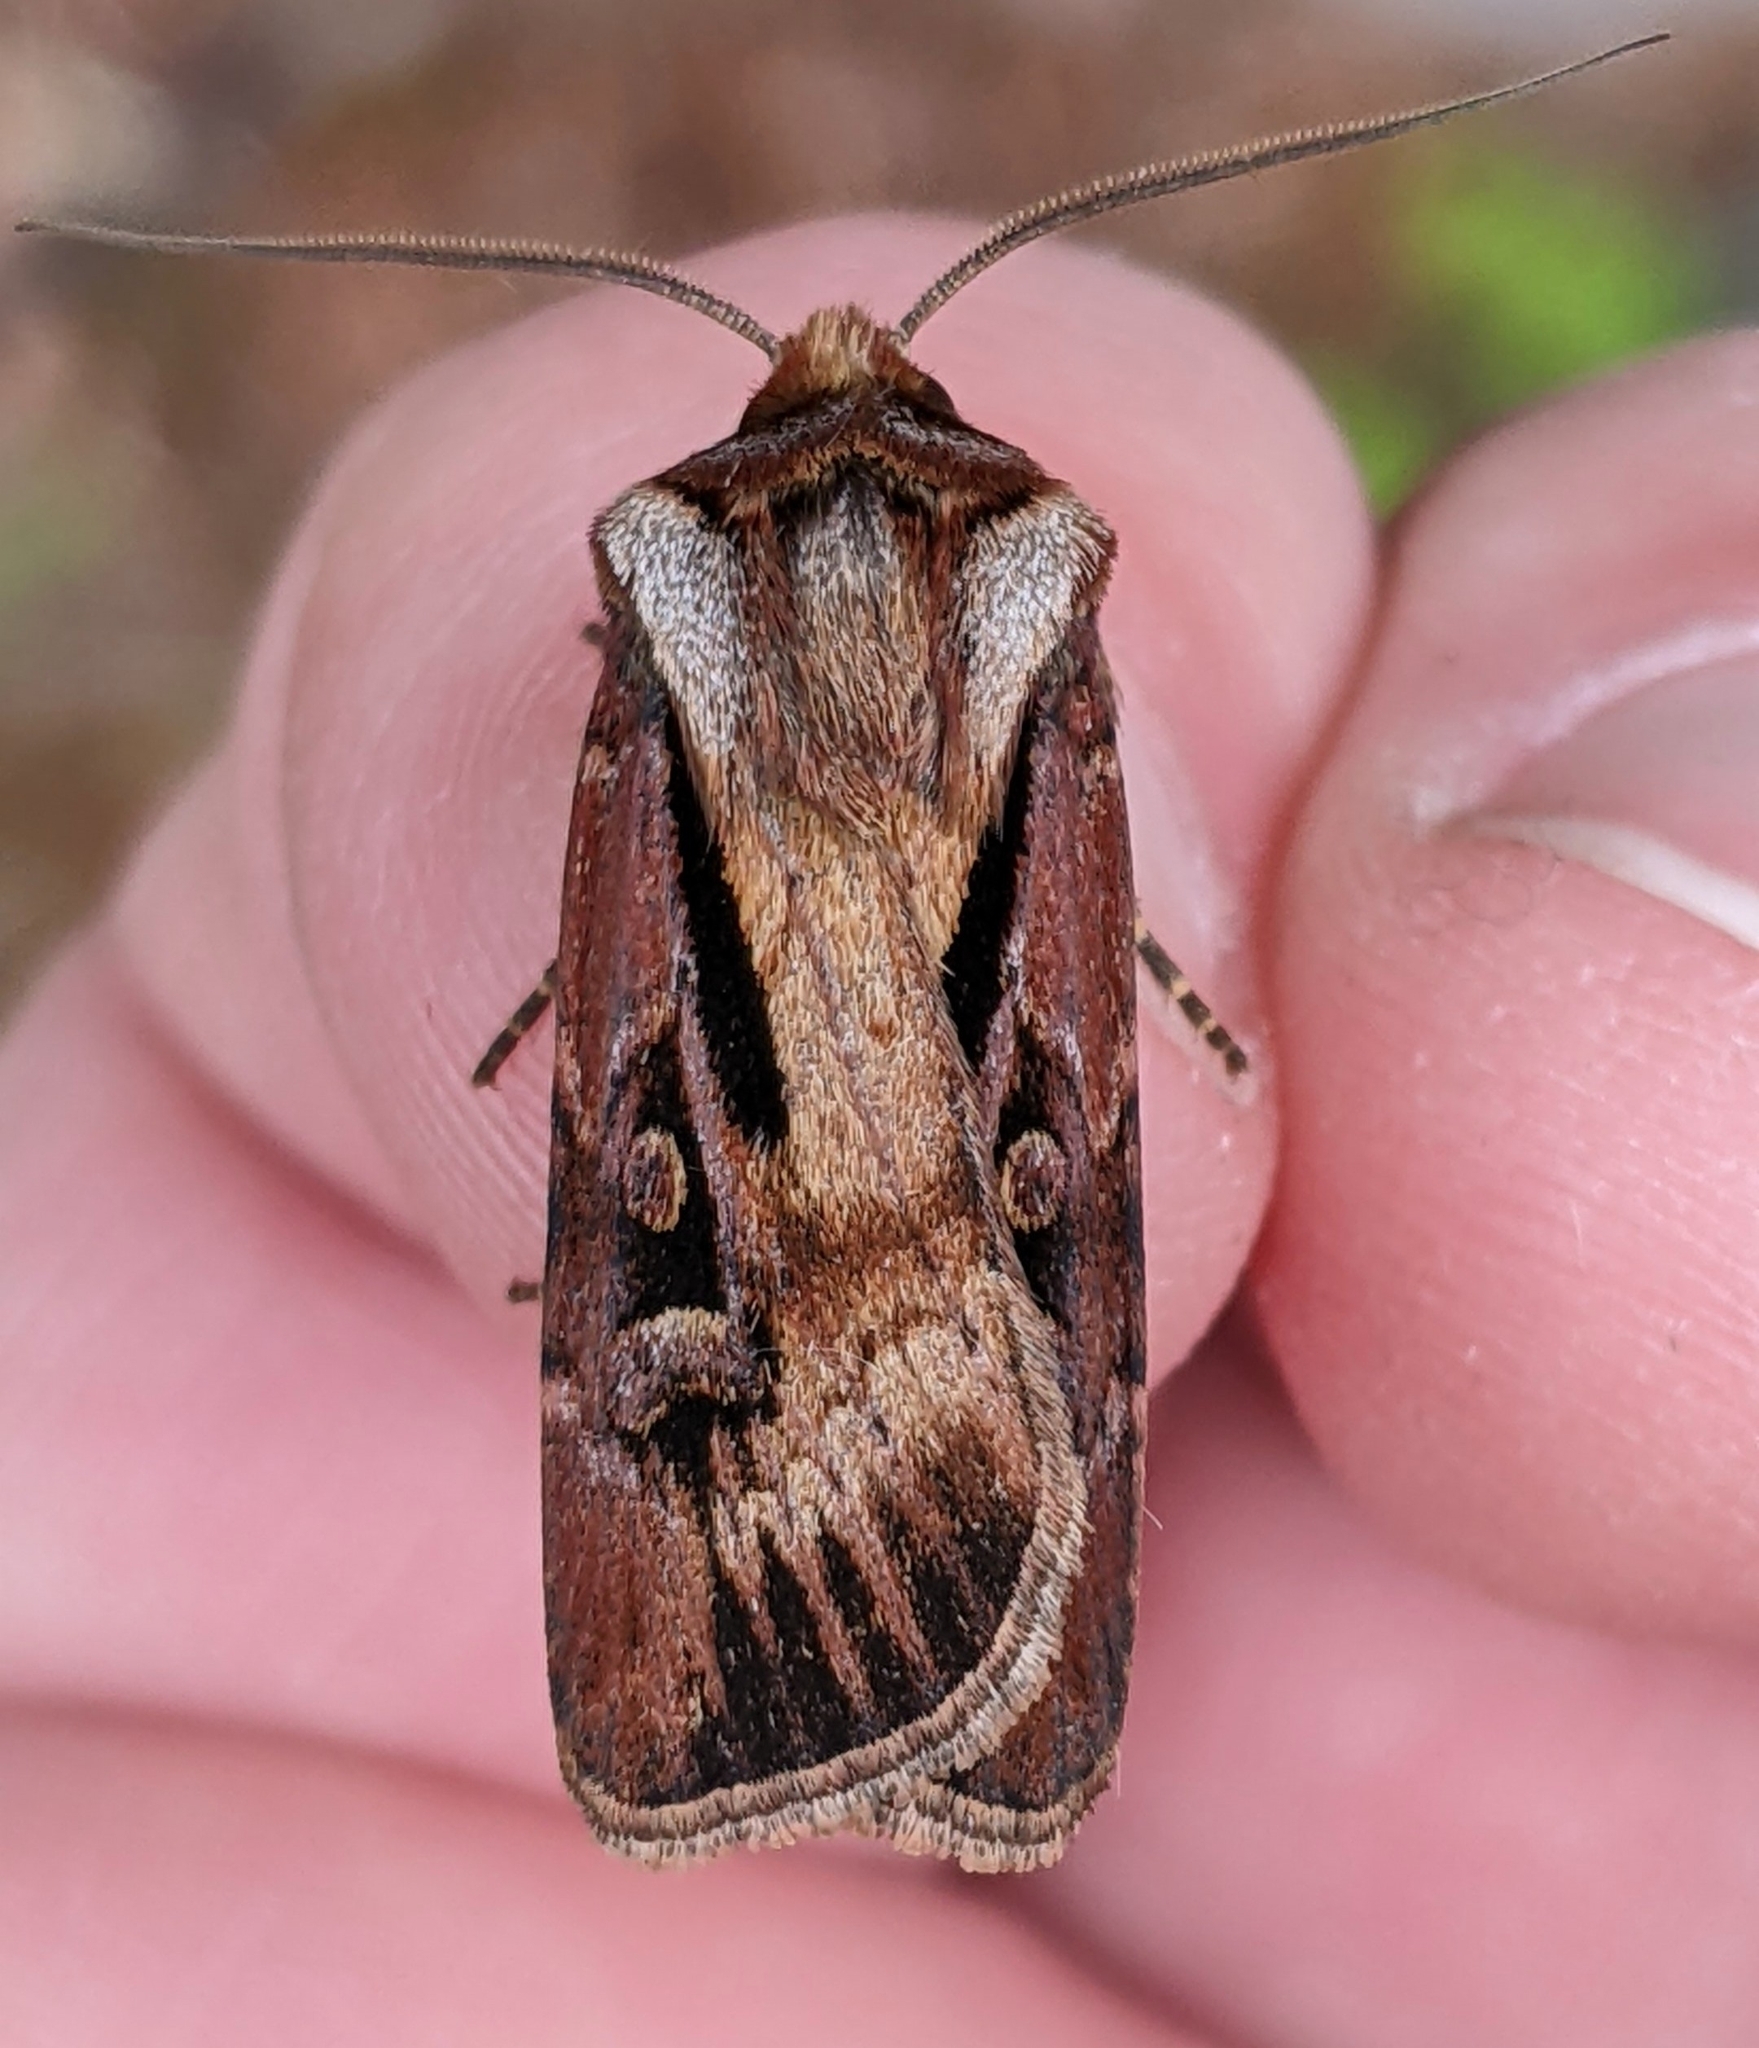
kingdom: Animalia
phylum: Arthropoda
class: Insecta
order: Lepidoptera
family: Noctuidae
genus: Agrotis
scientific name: Agrotis vancouverensis
